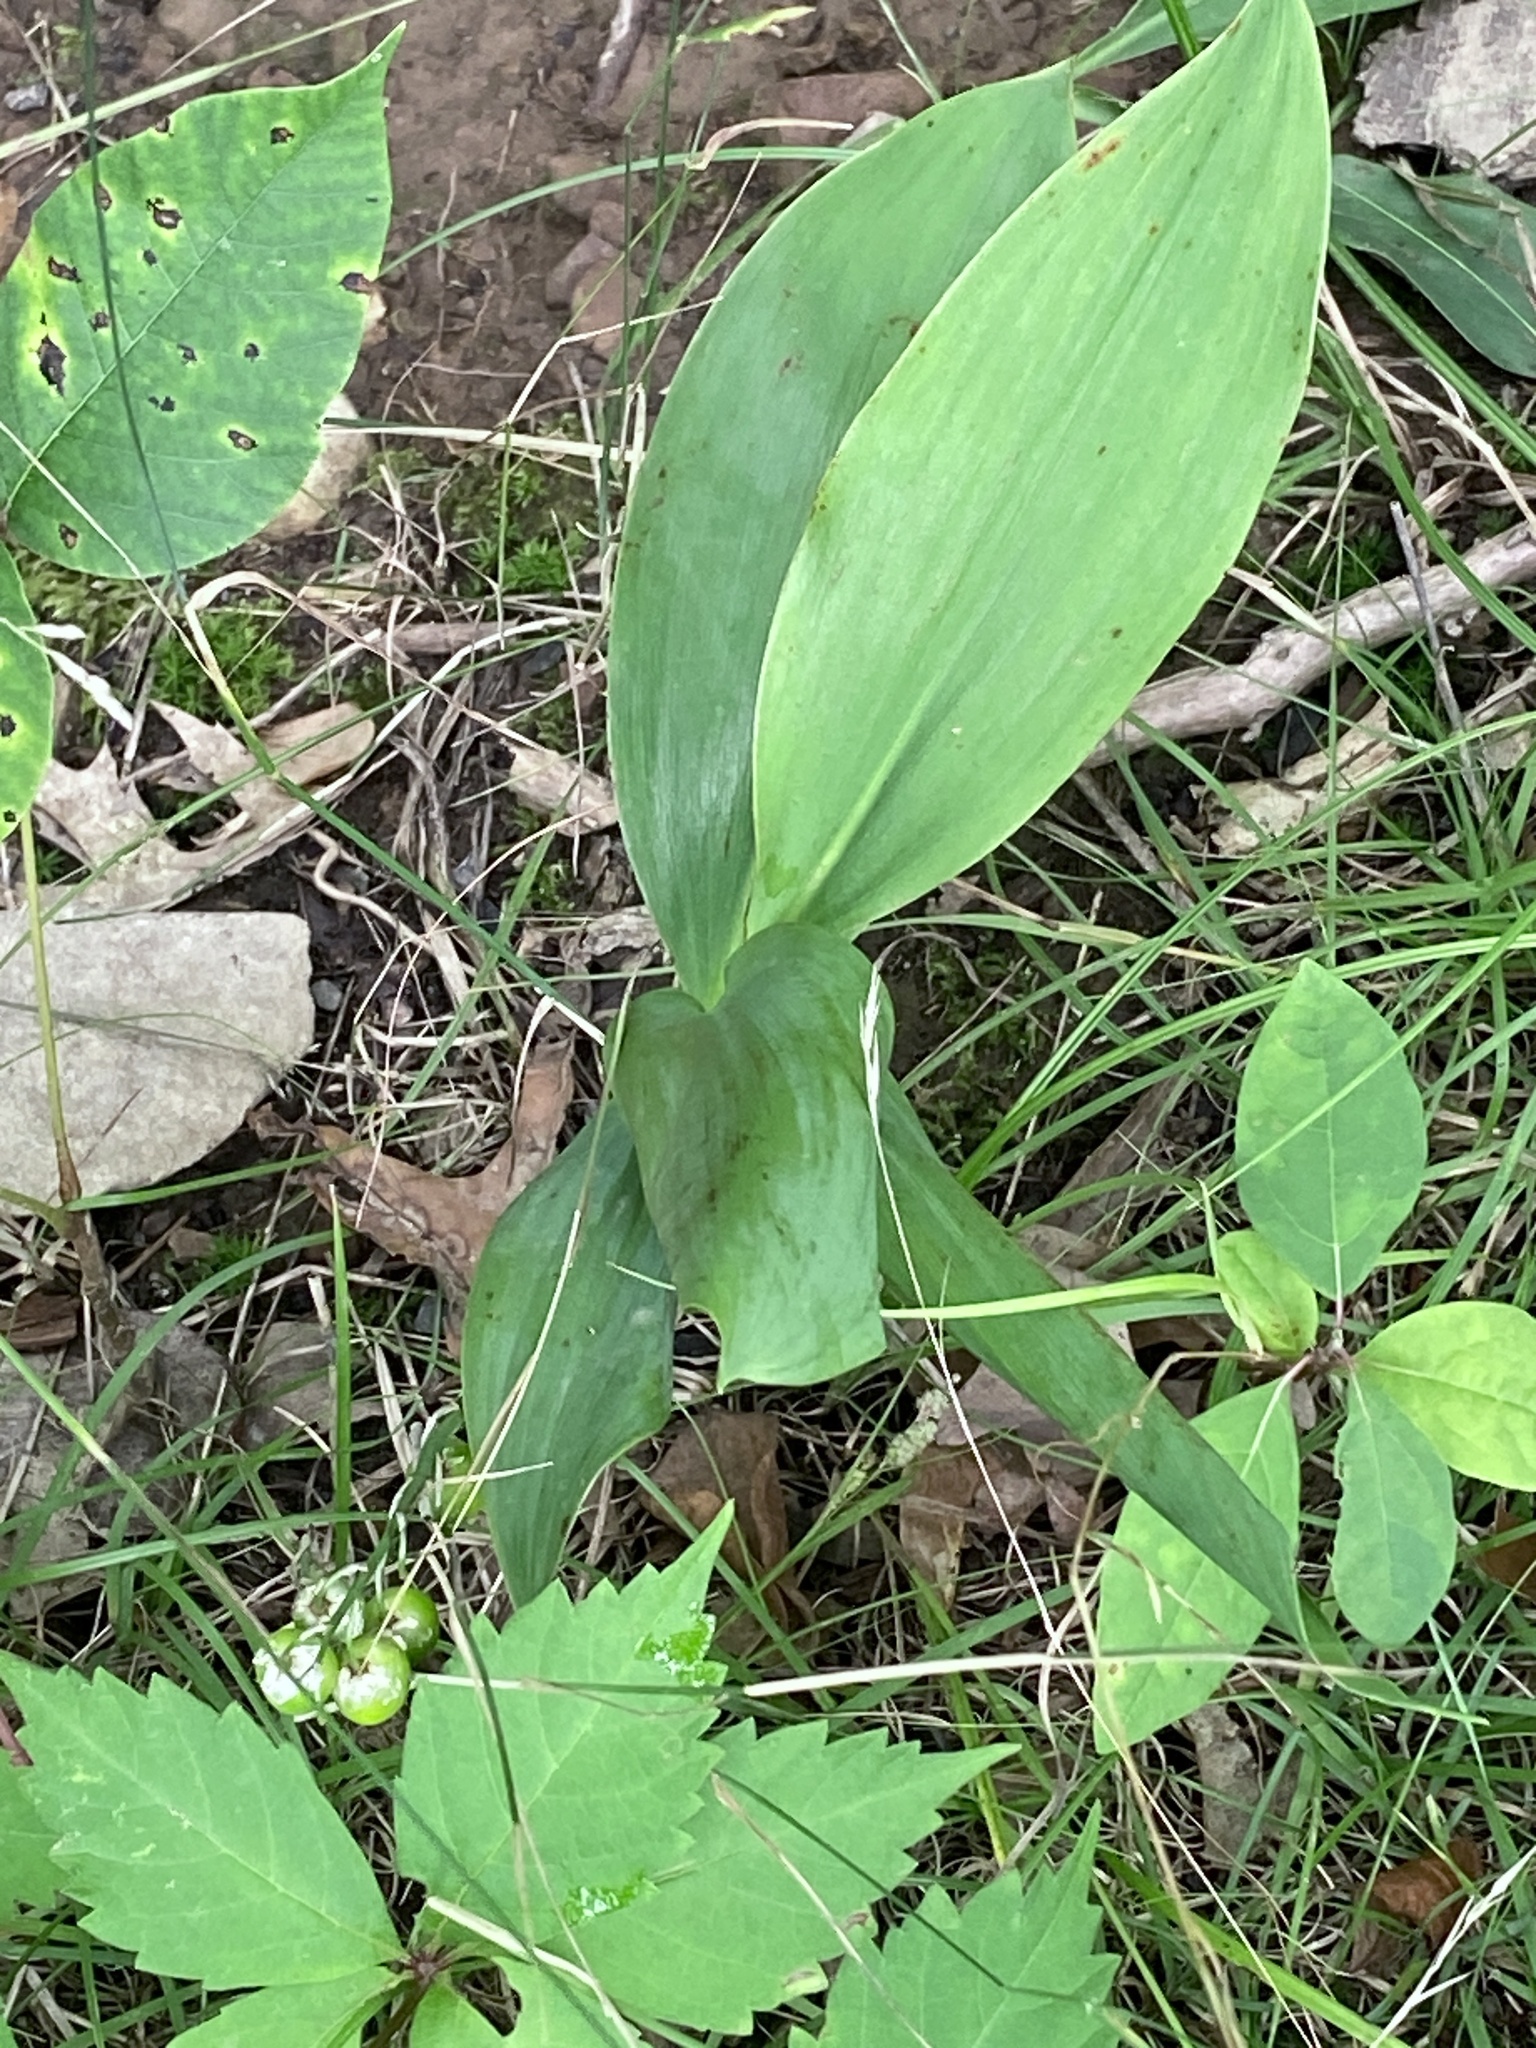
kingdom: Plantae
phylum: Tracheophyta
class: Liliopsida
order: Asparagales
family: Asparagaceae
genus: Convallaria
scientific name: Convallaria majalis
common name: Lily-of-the-valley
